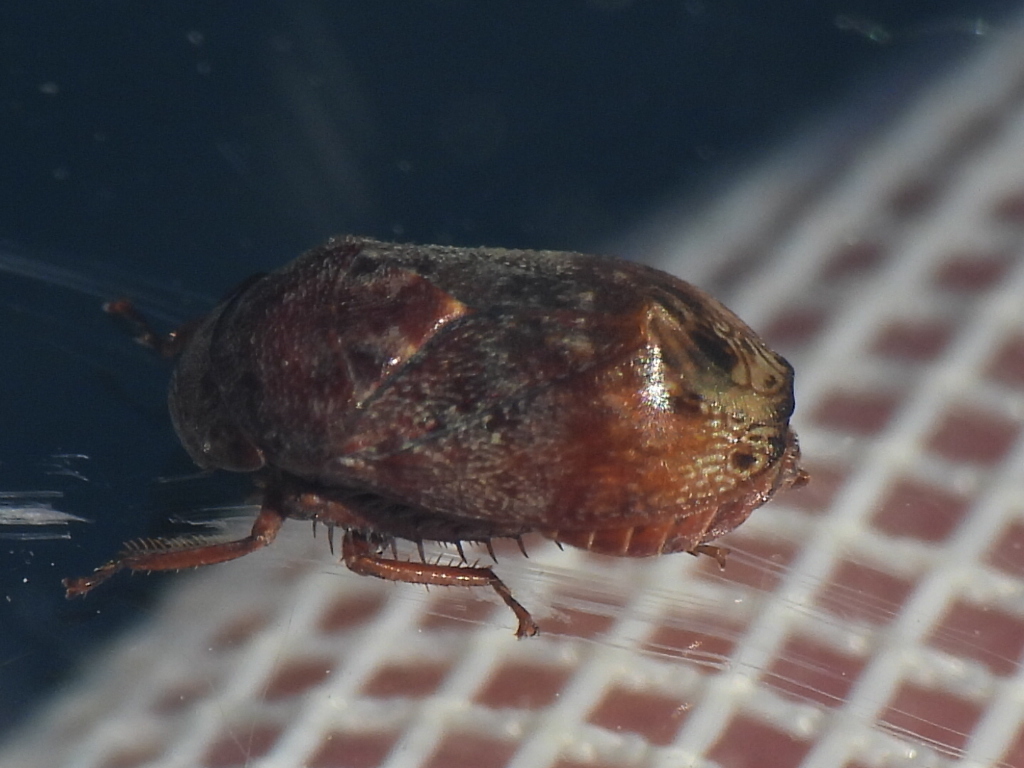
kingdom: Animalia
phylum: Arthropoda
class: Insecta
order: Hemiptera
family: Cicadellidae
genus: Penthimia
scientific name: Penthimia americana
